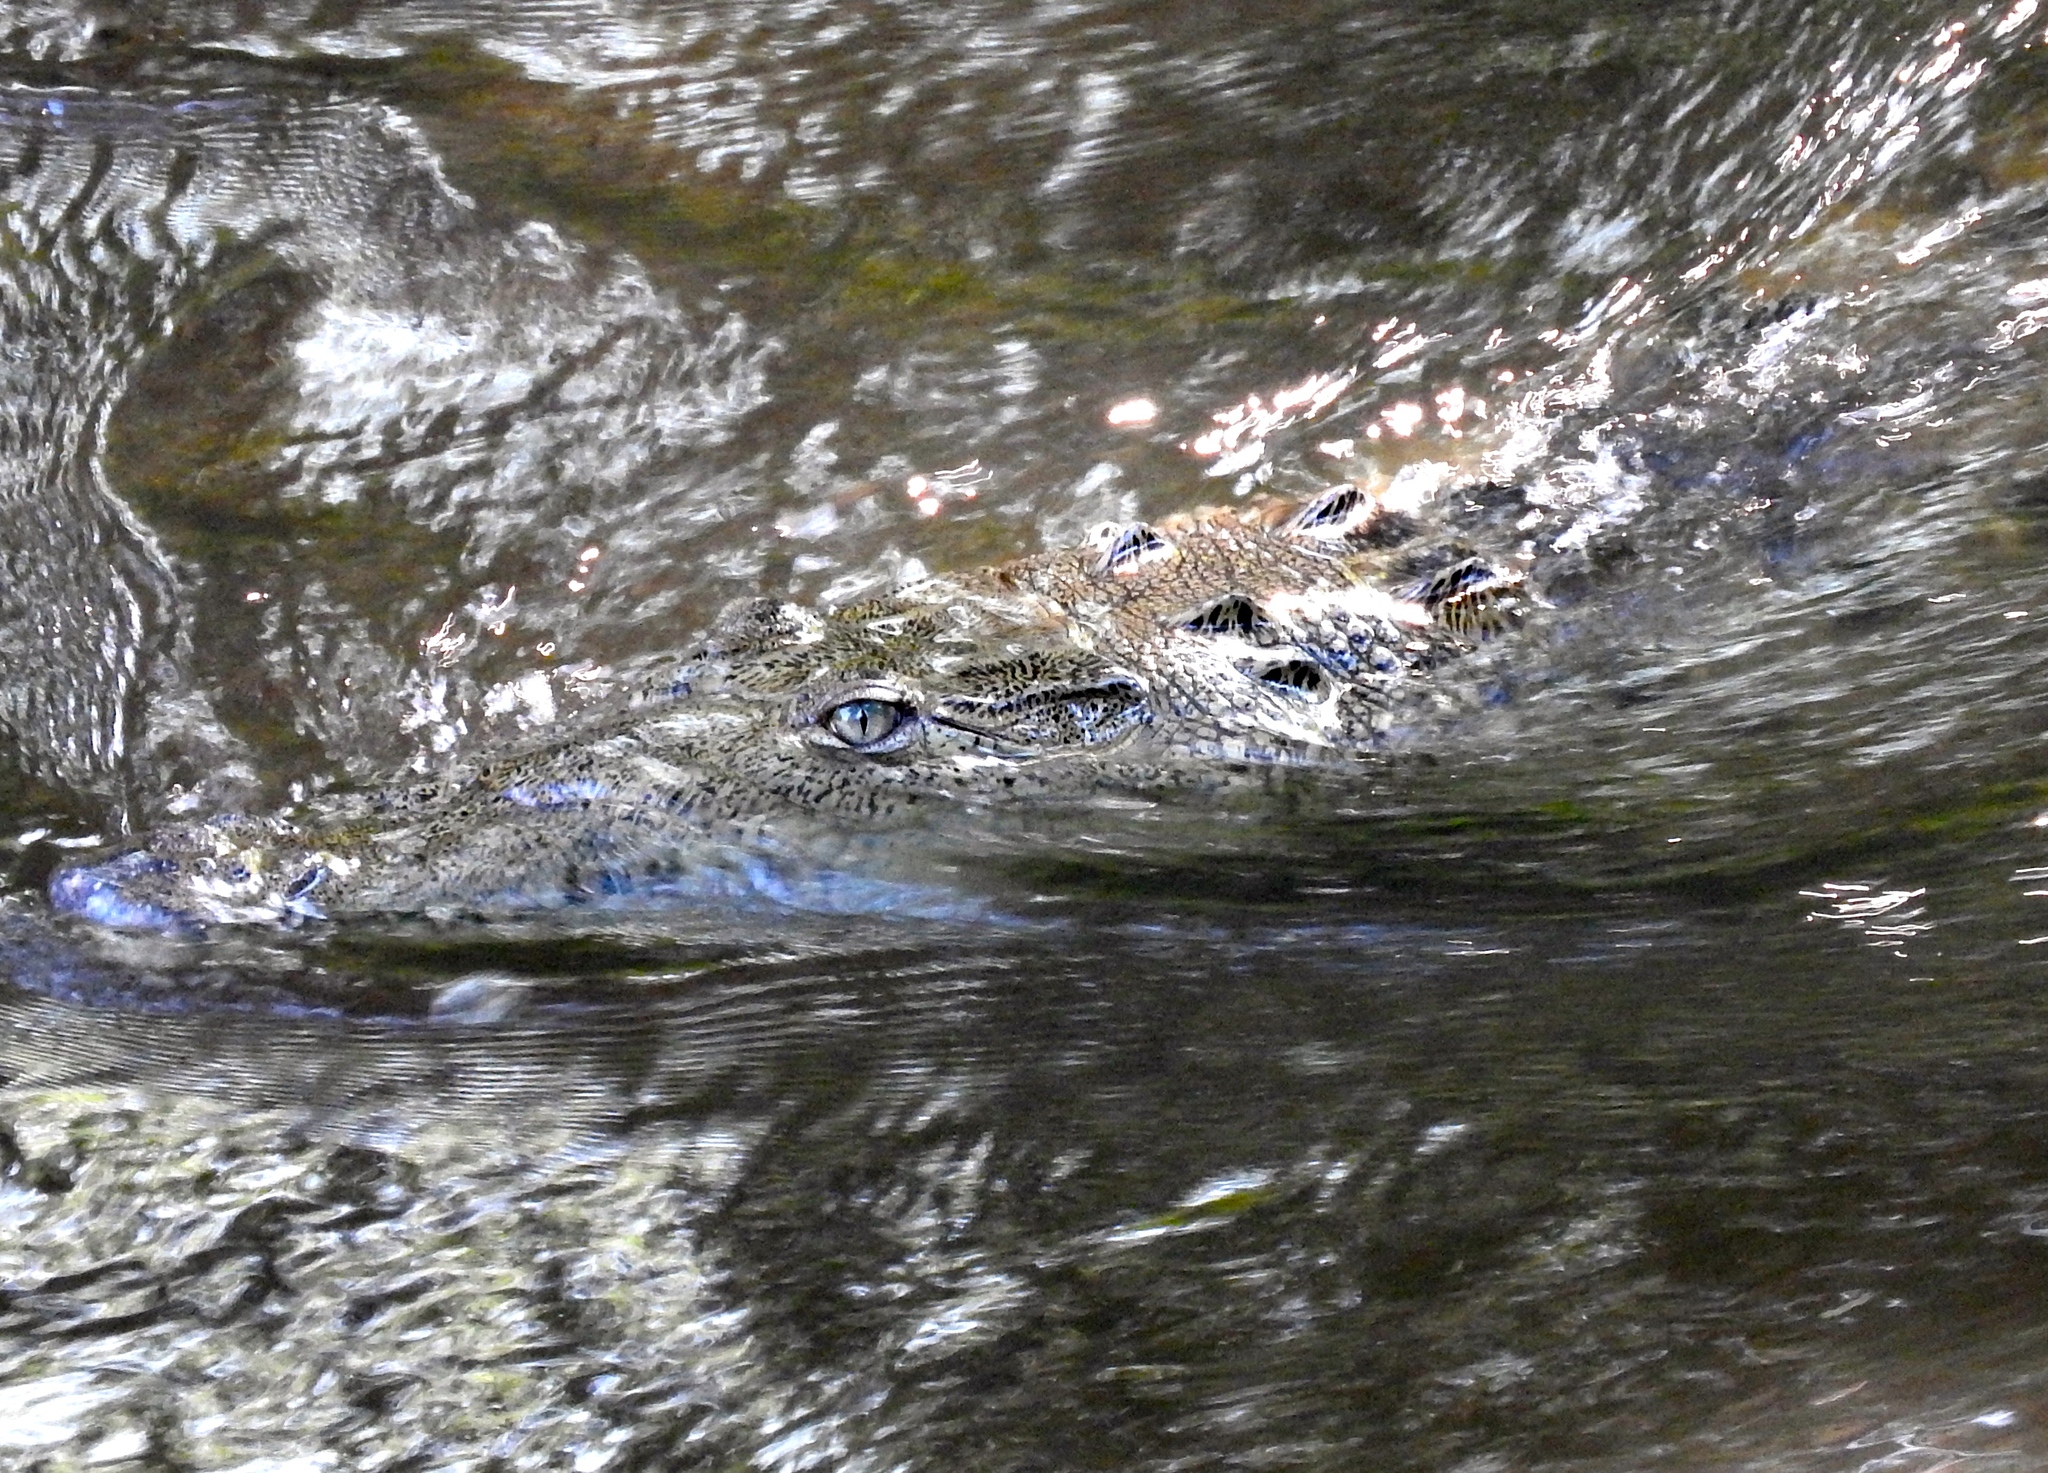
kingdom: Animalia
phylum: Chordata
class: Crocodylia
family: Crocodylidae
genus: Crocodylus
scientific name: Crocodylus acutus
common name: American crocodile
